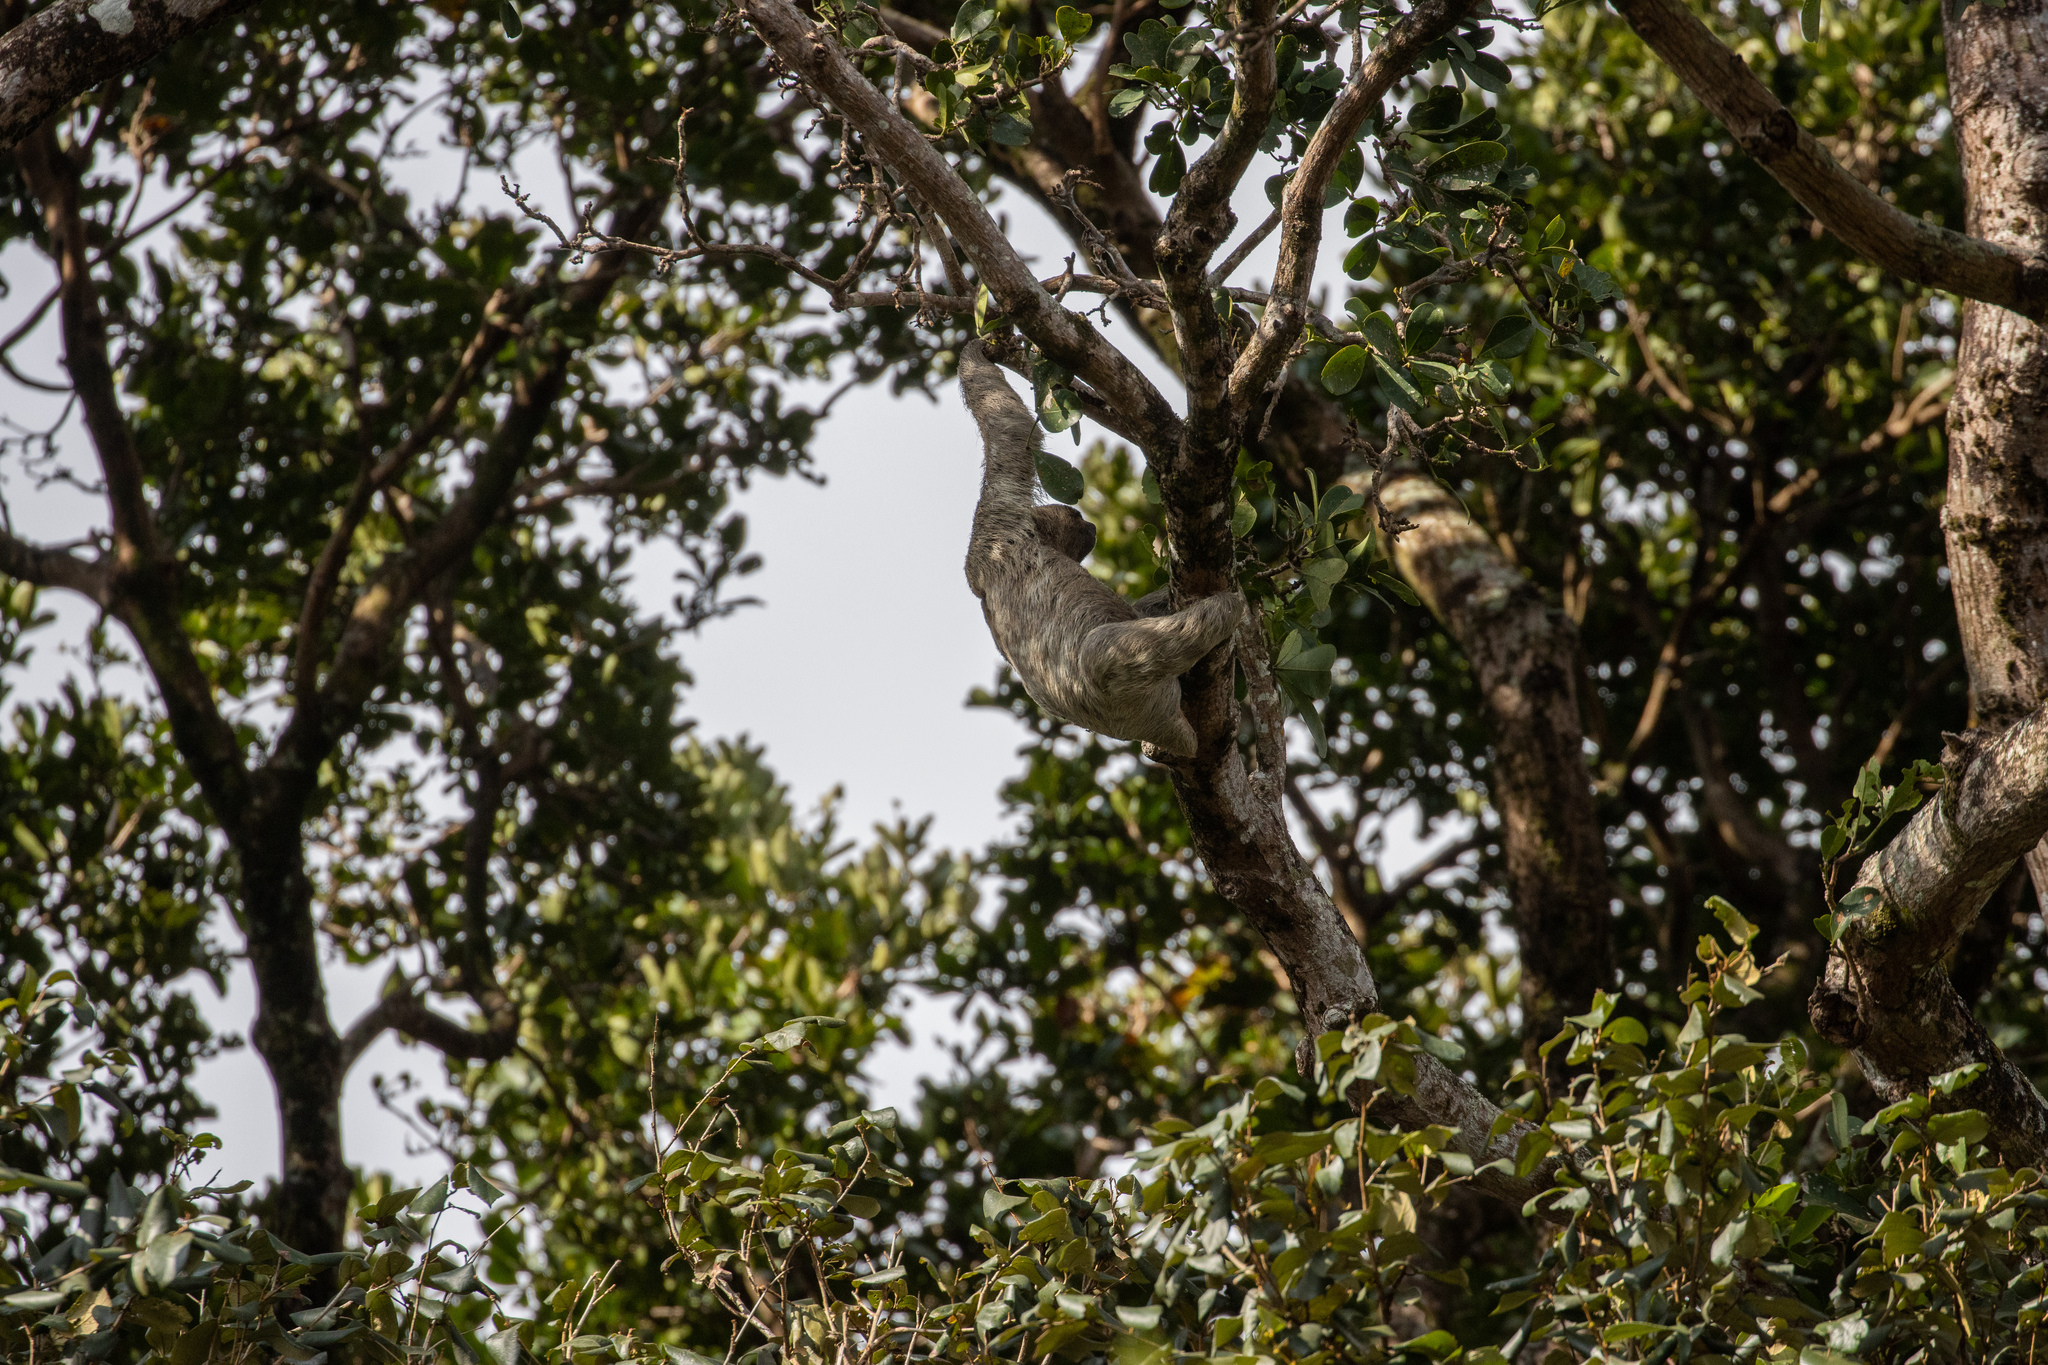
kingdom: Animalia
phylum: Chordata
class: Mammalia
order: Pilosa
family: Bradypodidae
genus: Bradypus
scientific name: Bradypus variegatus
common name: Brown-throated three-toed sloth
